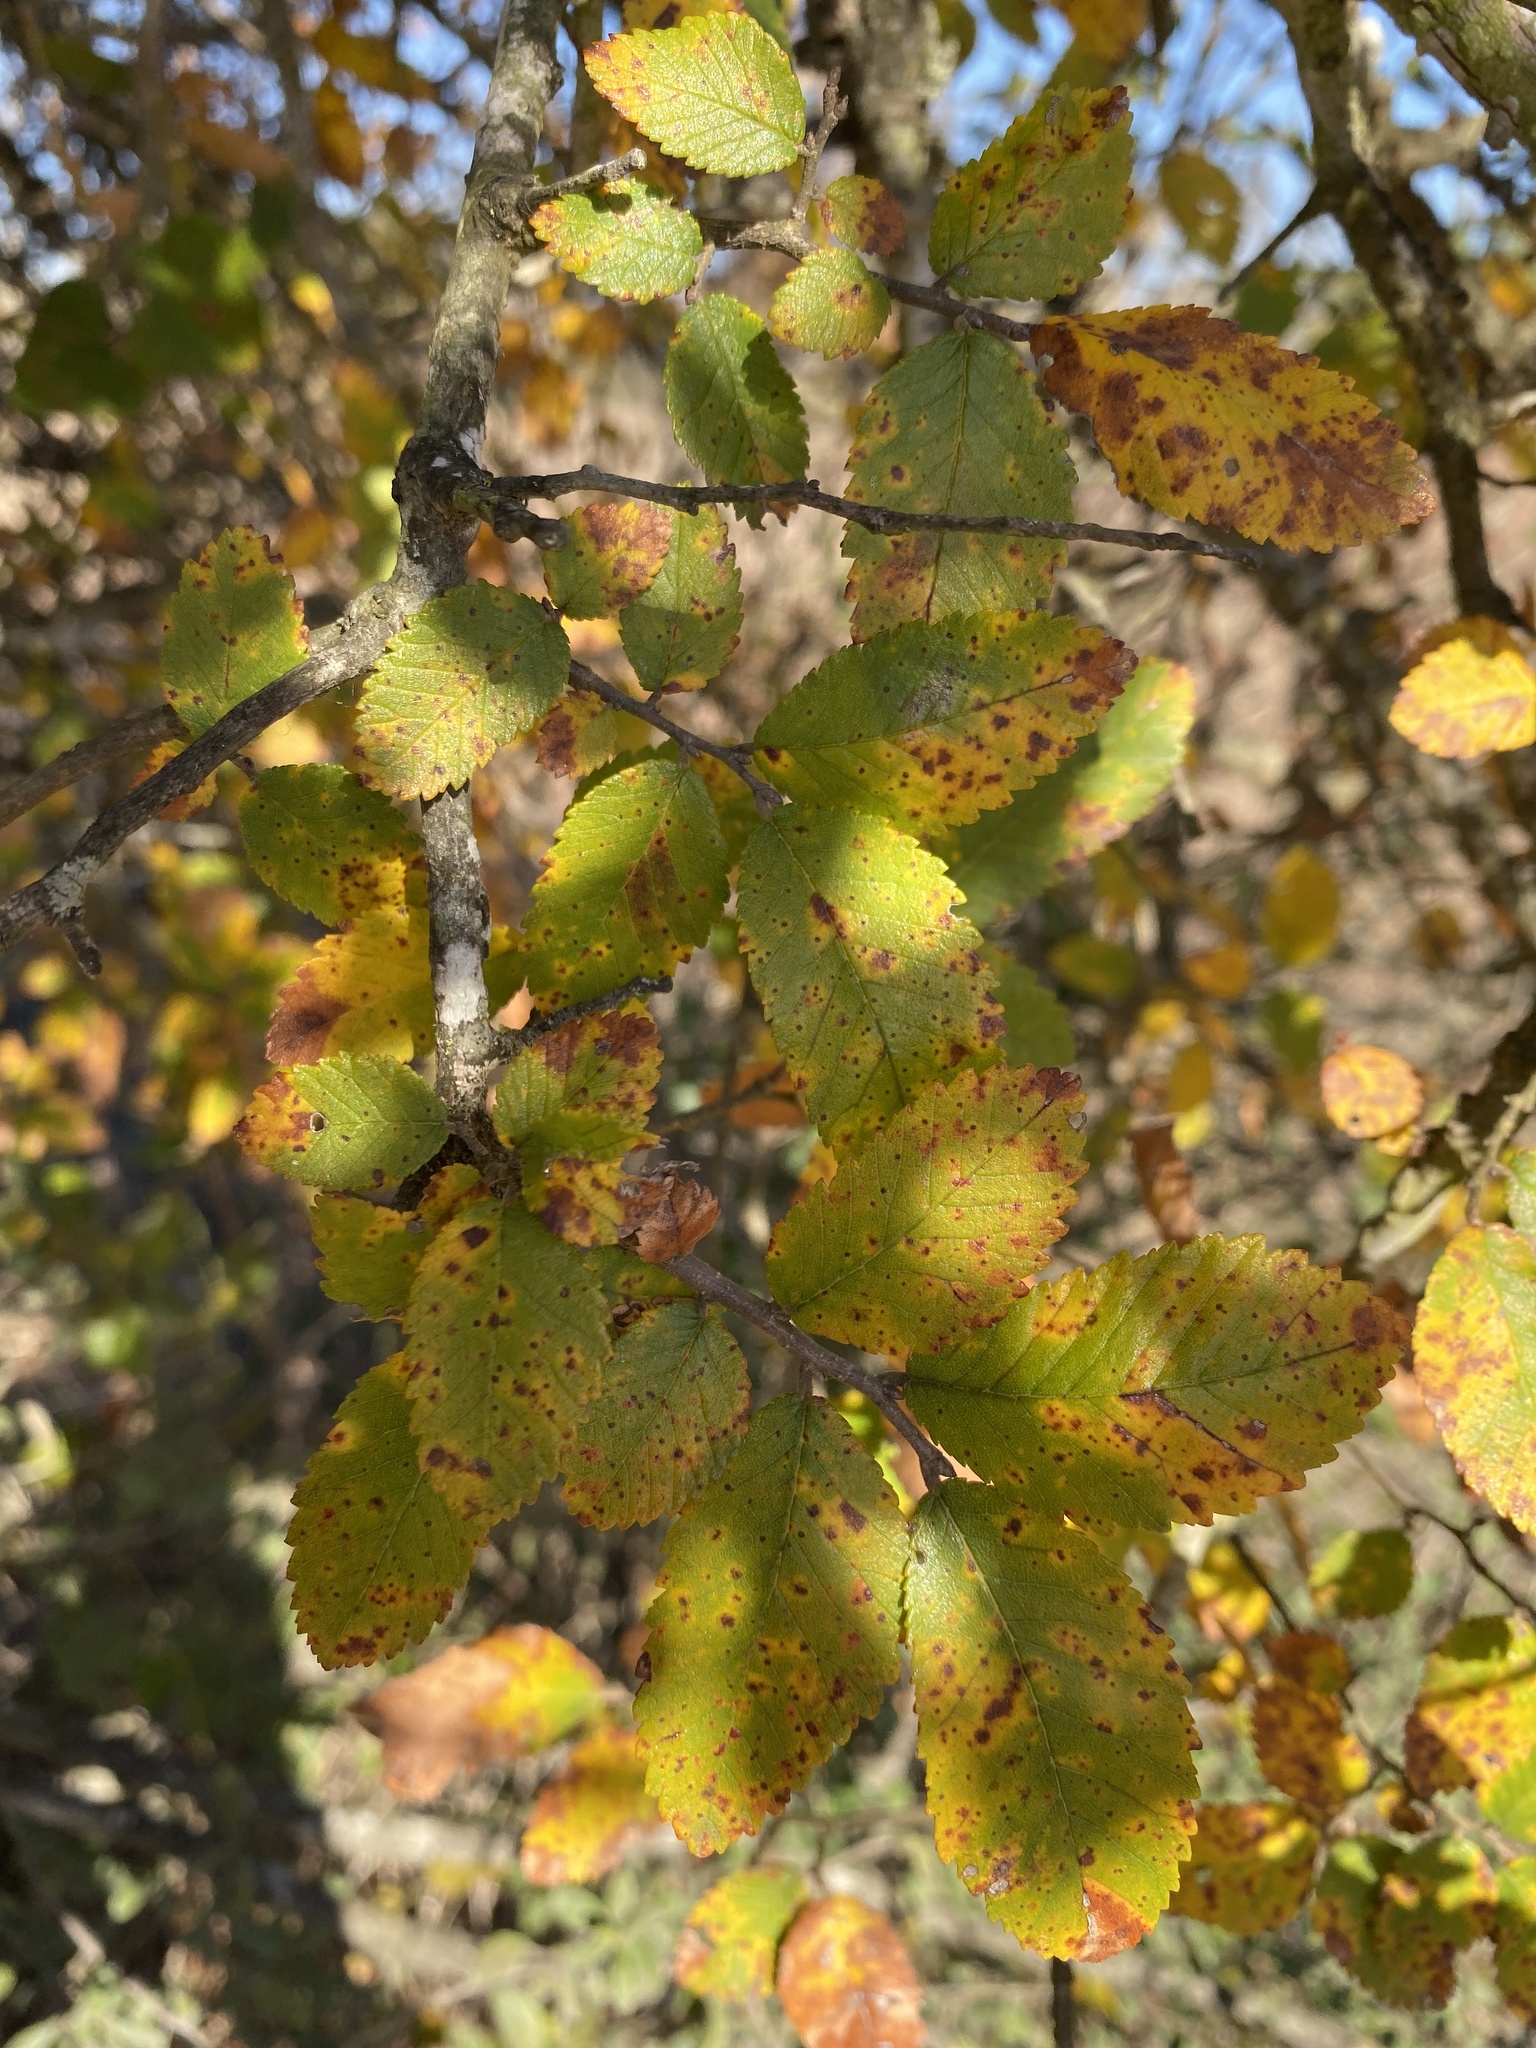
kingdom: Plantae
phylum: Tracheophyta
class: Magnoliopsida
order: Rosales
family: Ulmaceae
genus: Ulmus
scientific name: Ulmus crassifolia
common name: Basket elm
